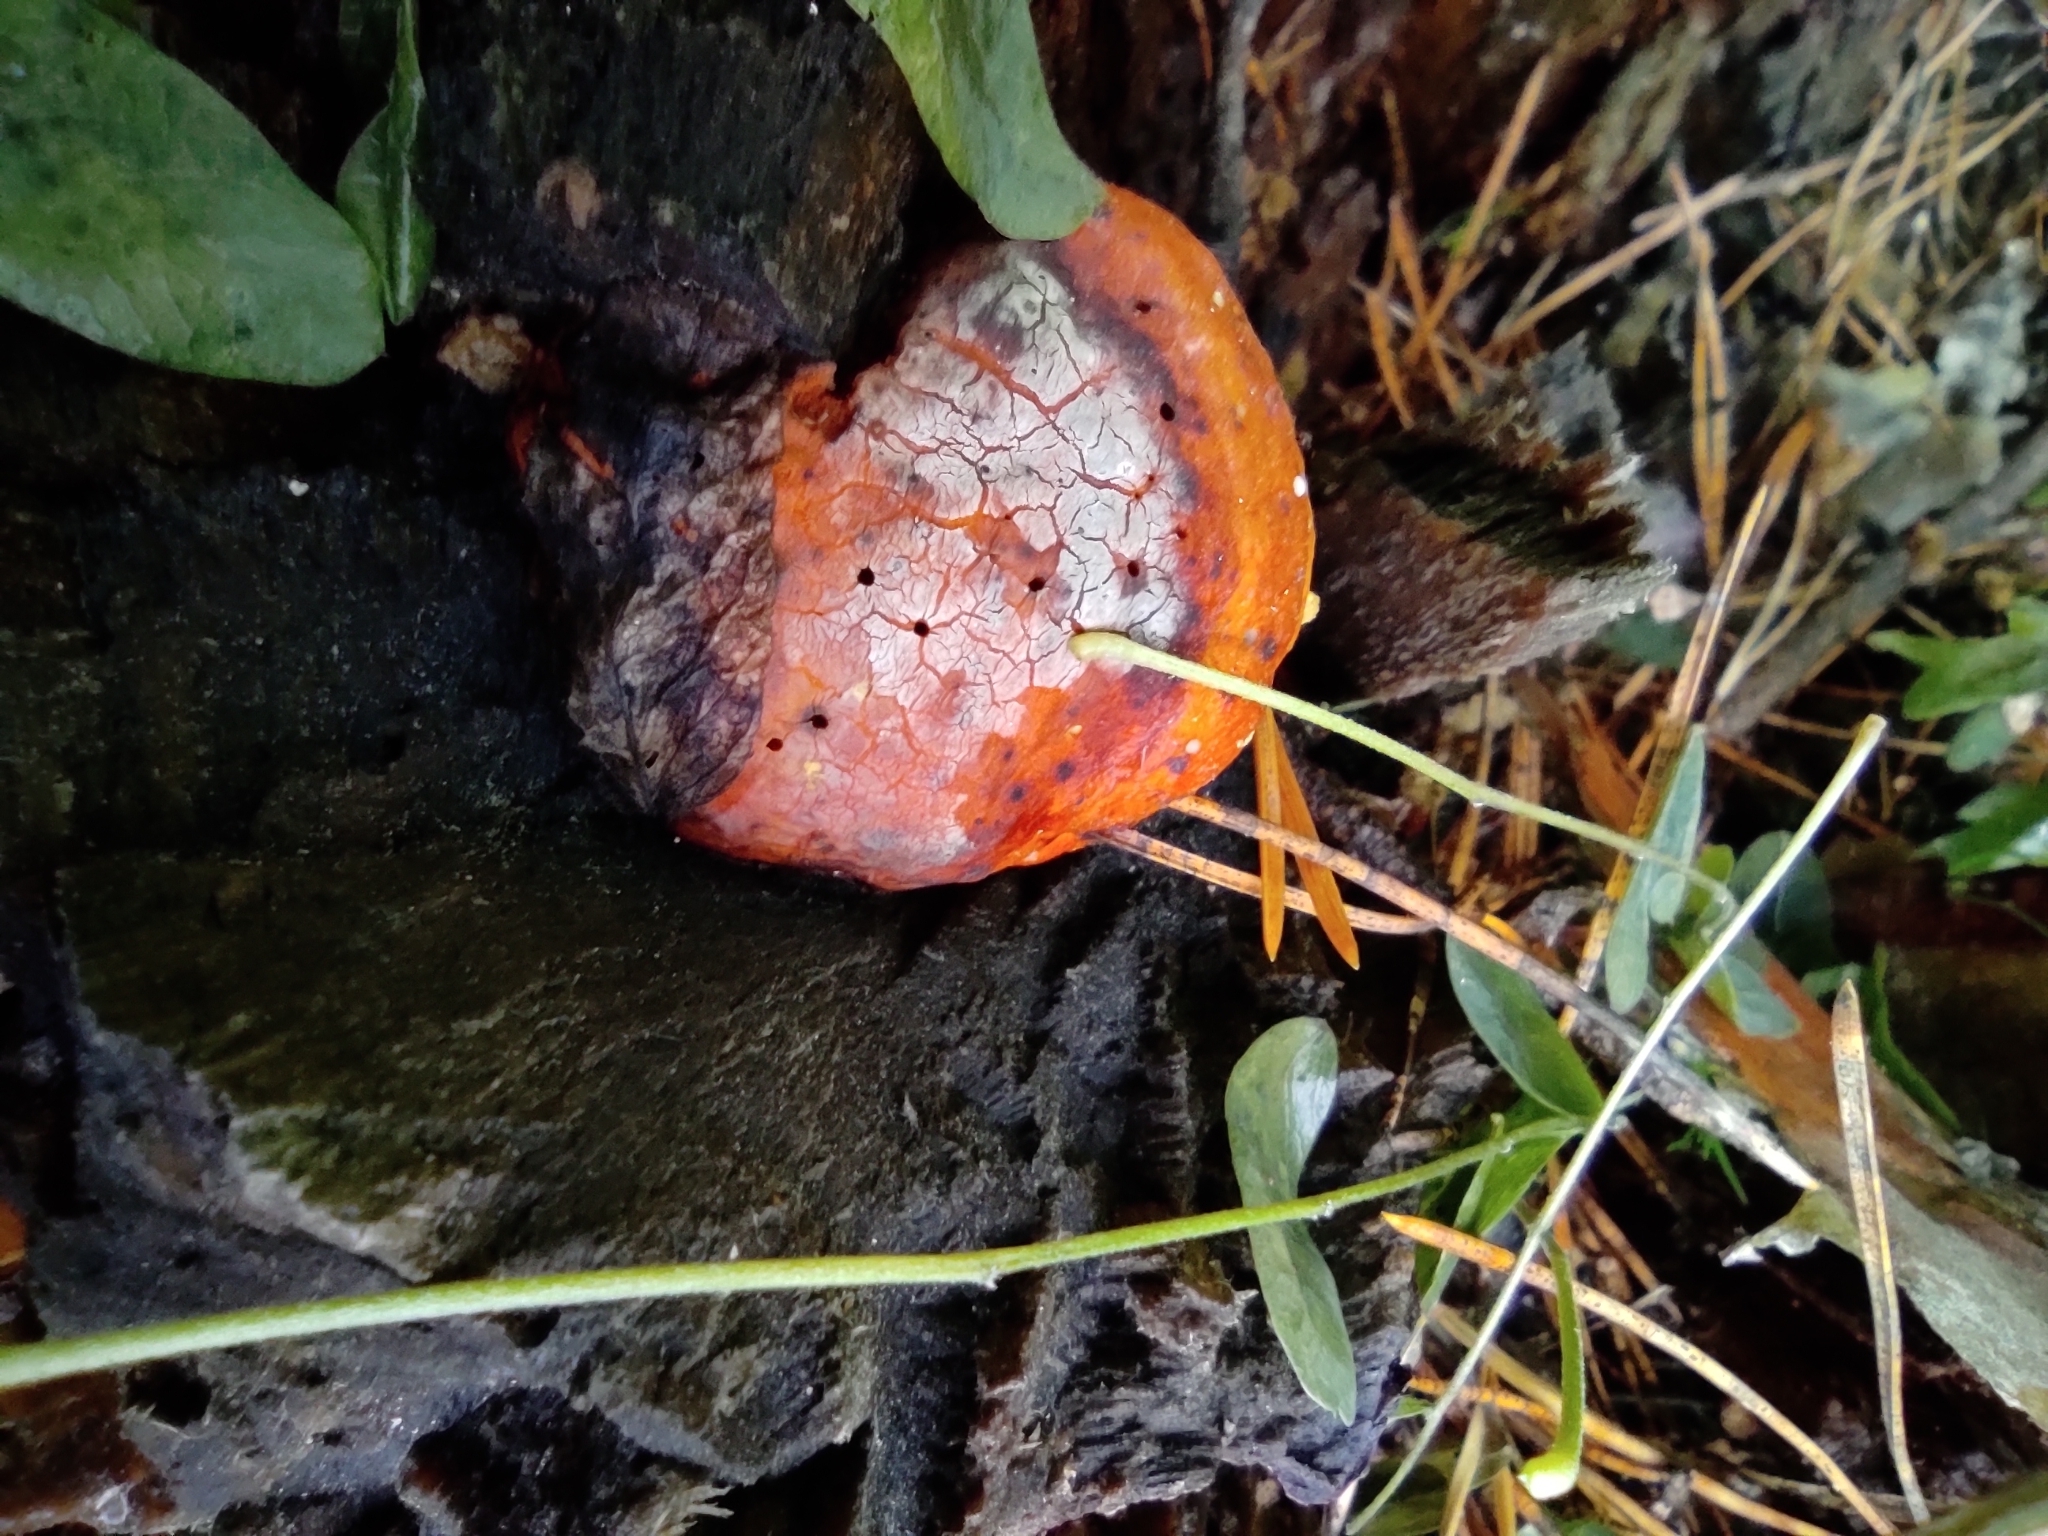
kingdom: Fungi
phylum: Basidiomycota
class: Agaricomycetes
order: Polyporales
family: Fomitopsidaceae
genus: Fomitopsis
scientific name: Fomitopsis pinicola
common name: Red-belted bracket
